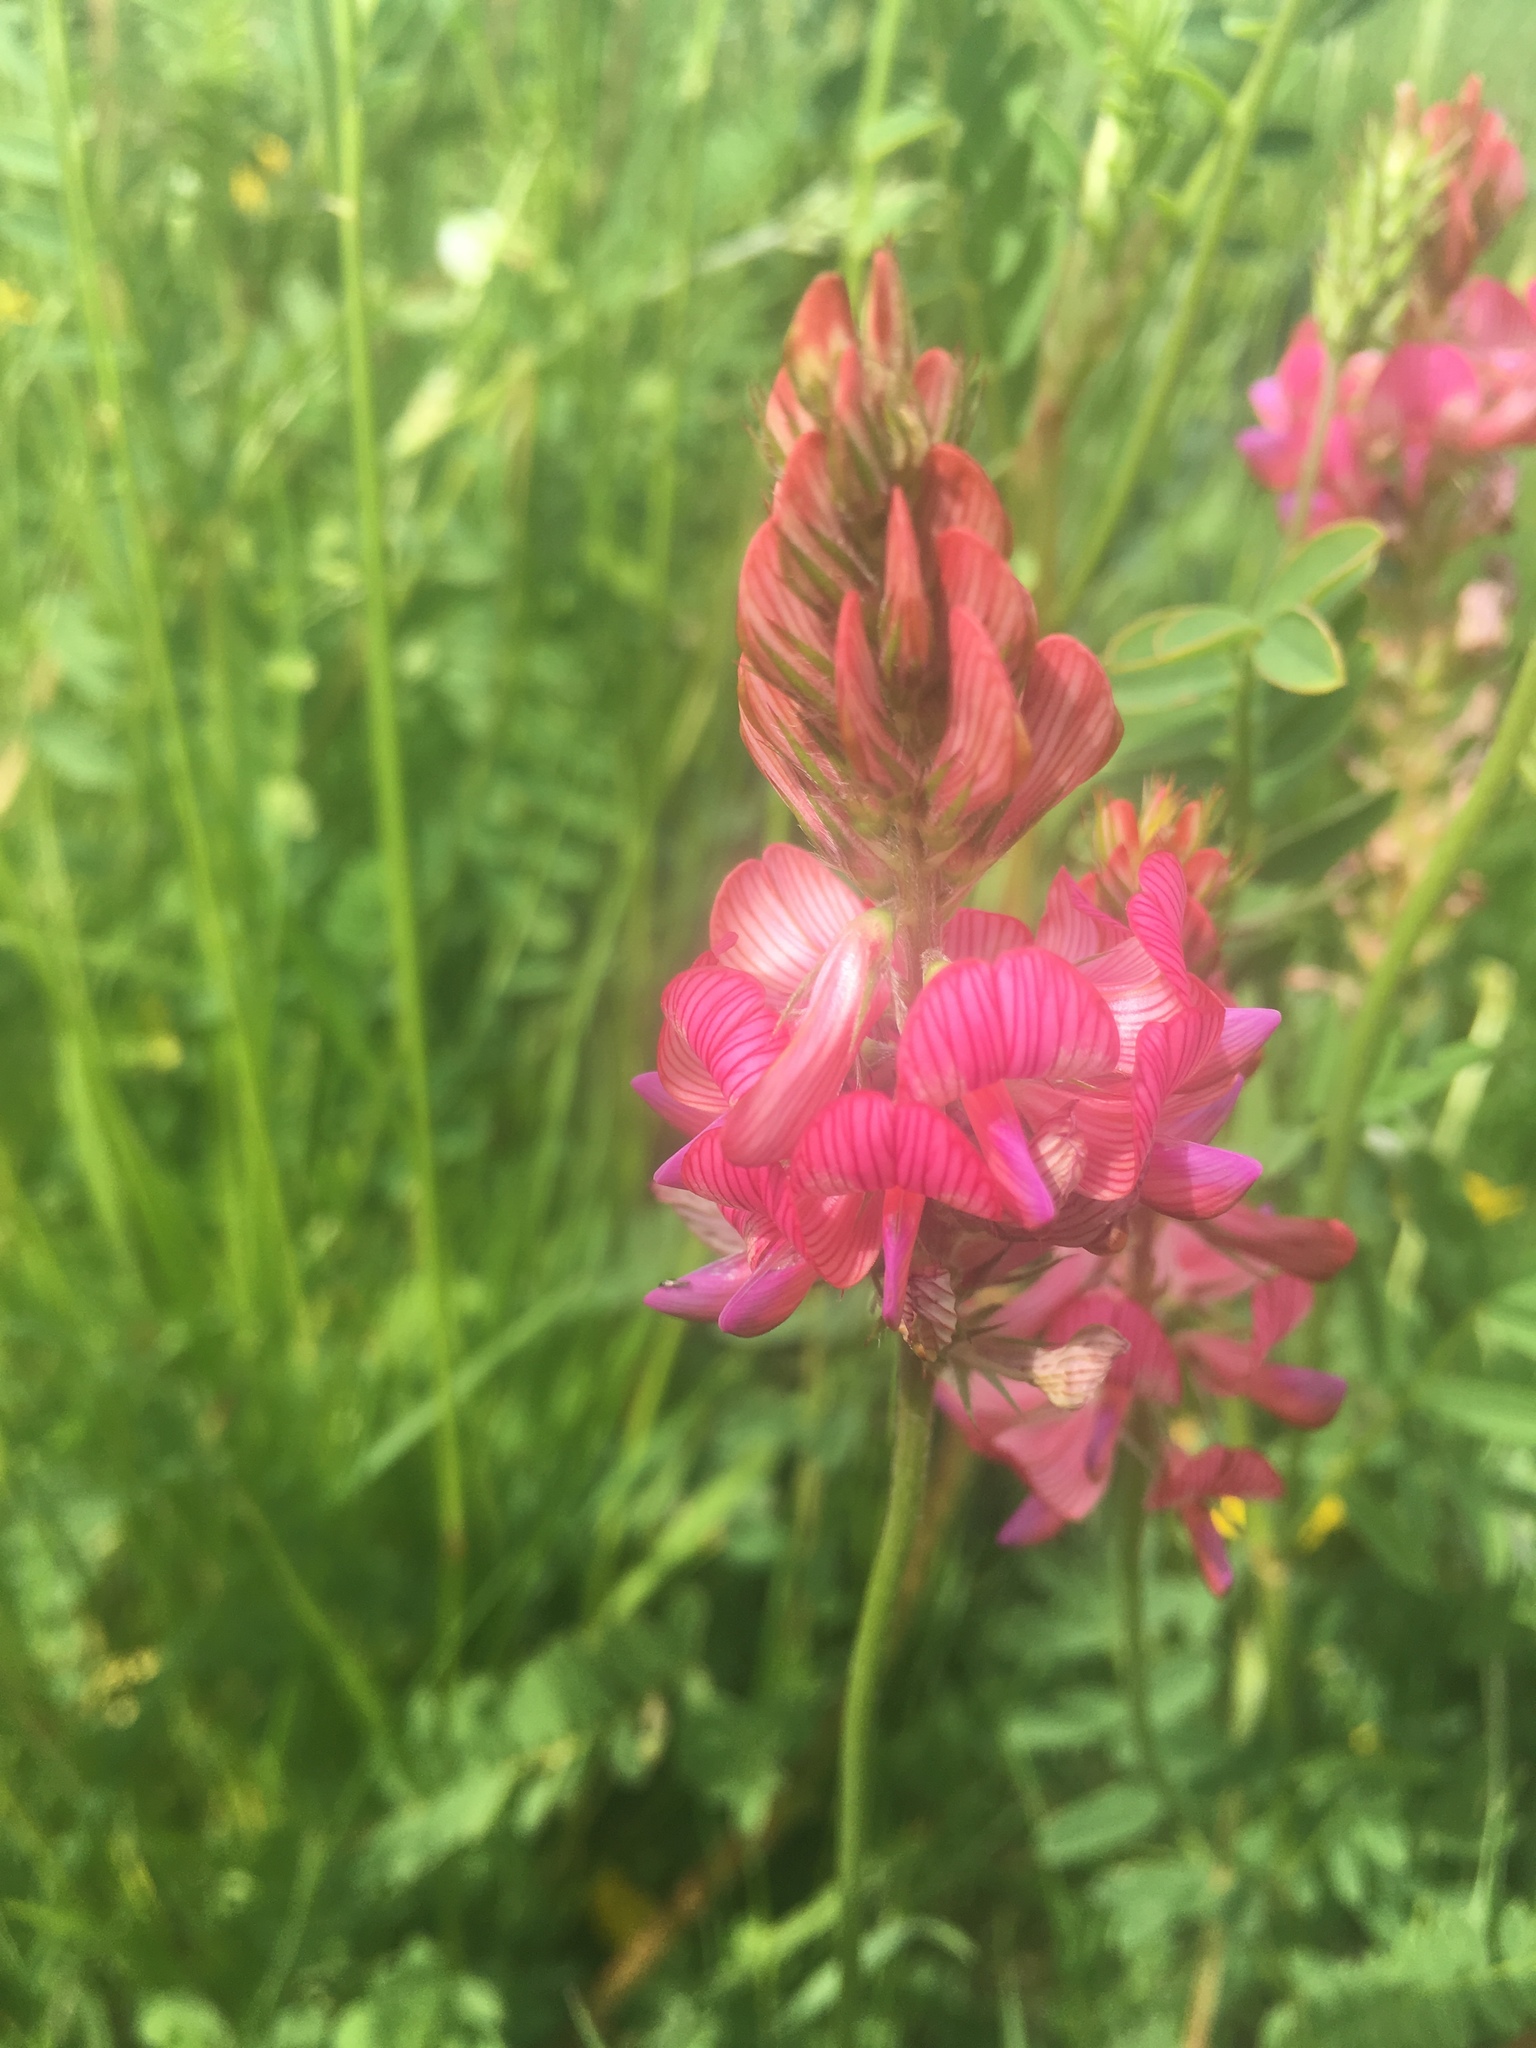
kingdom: Plantae
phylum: Tracheophyta
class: Magnoliopsida
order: Fabales
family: Fabaceae
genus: Onobrychis
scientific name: Onobrychis viciifolia
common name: Sainfoin
